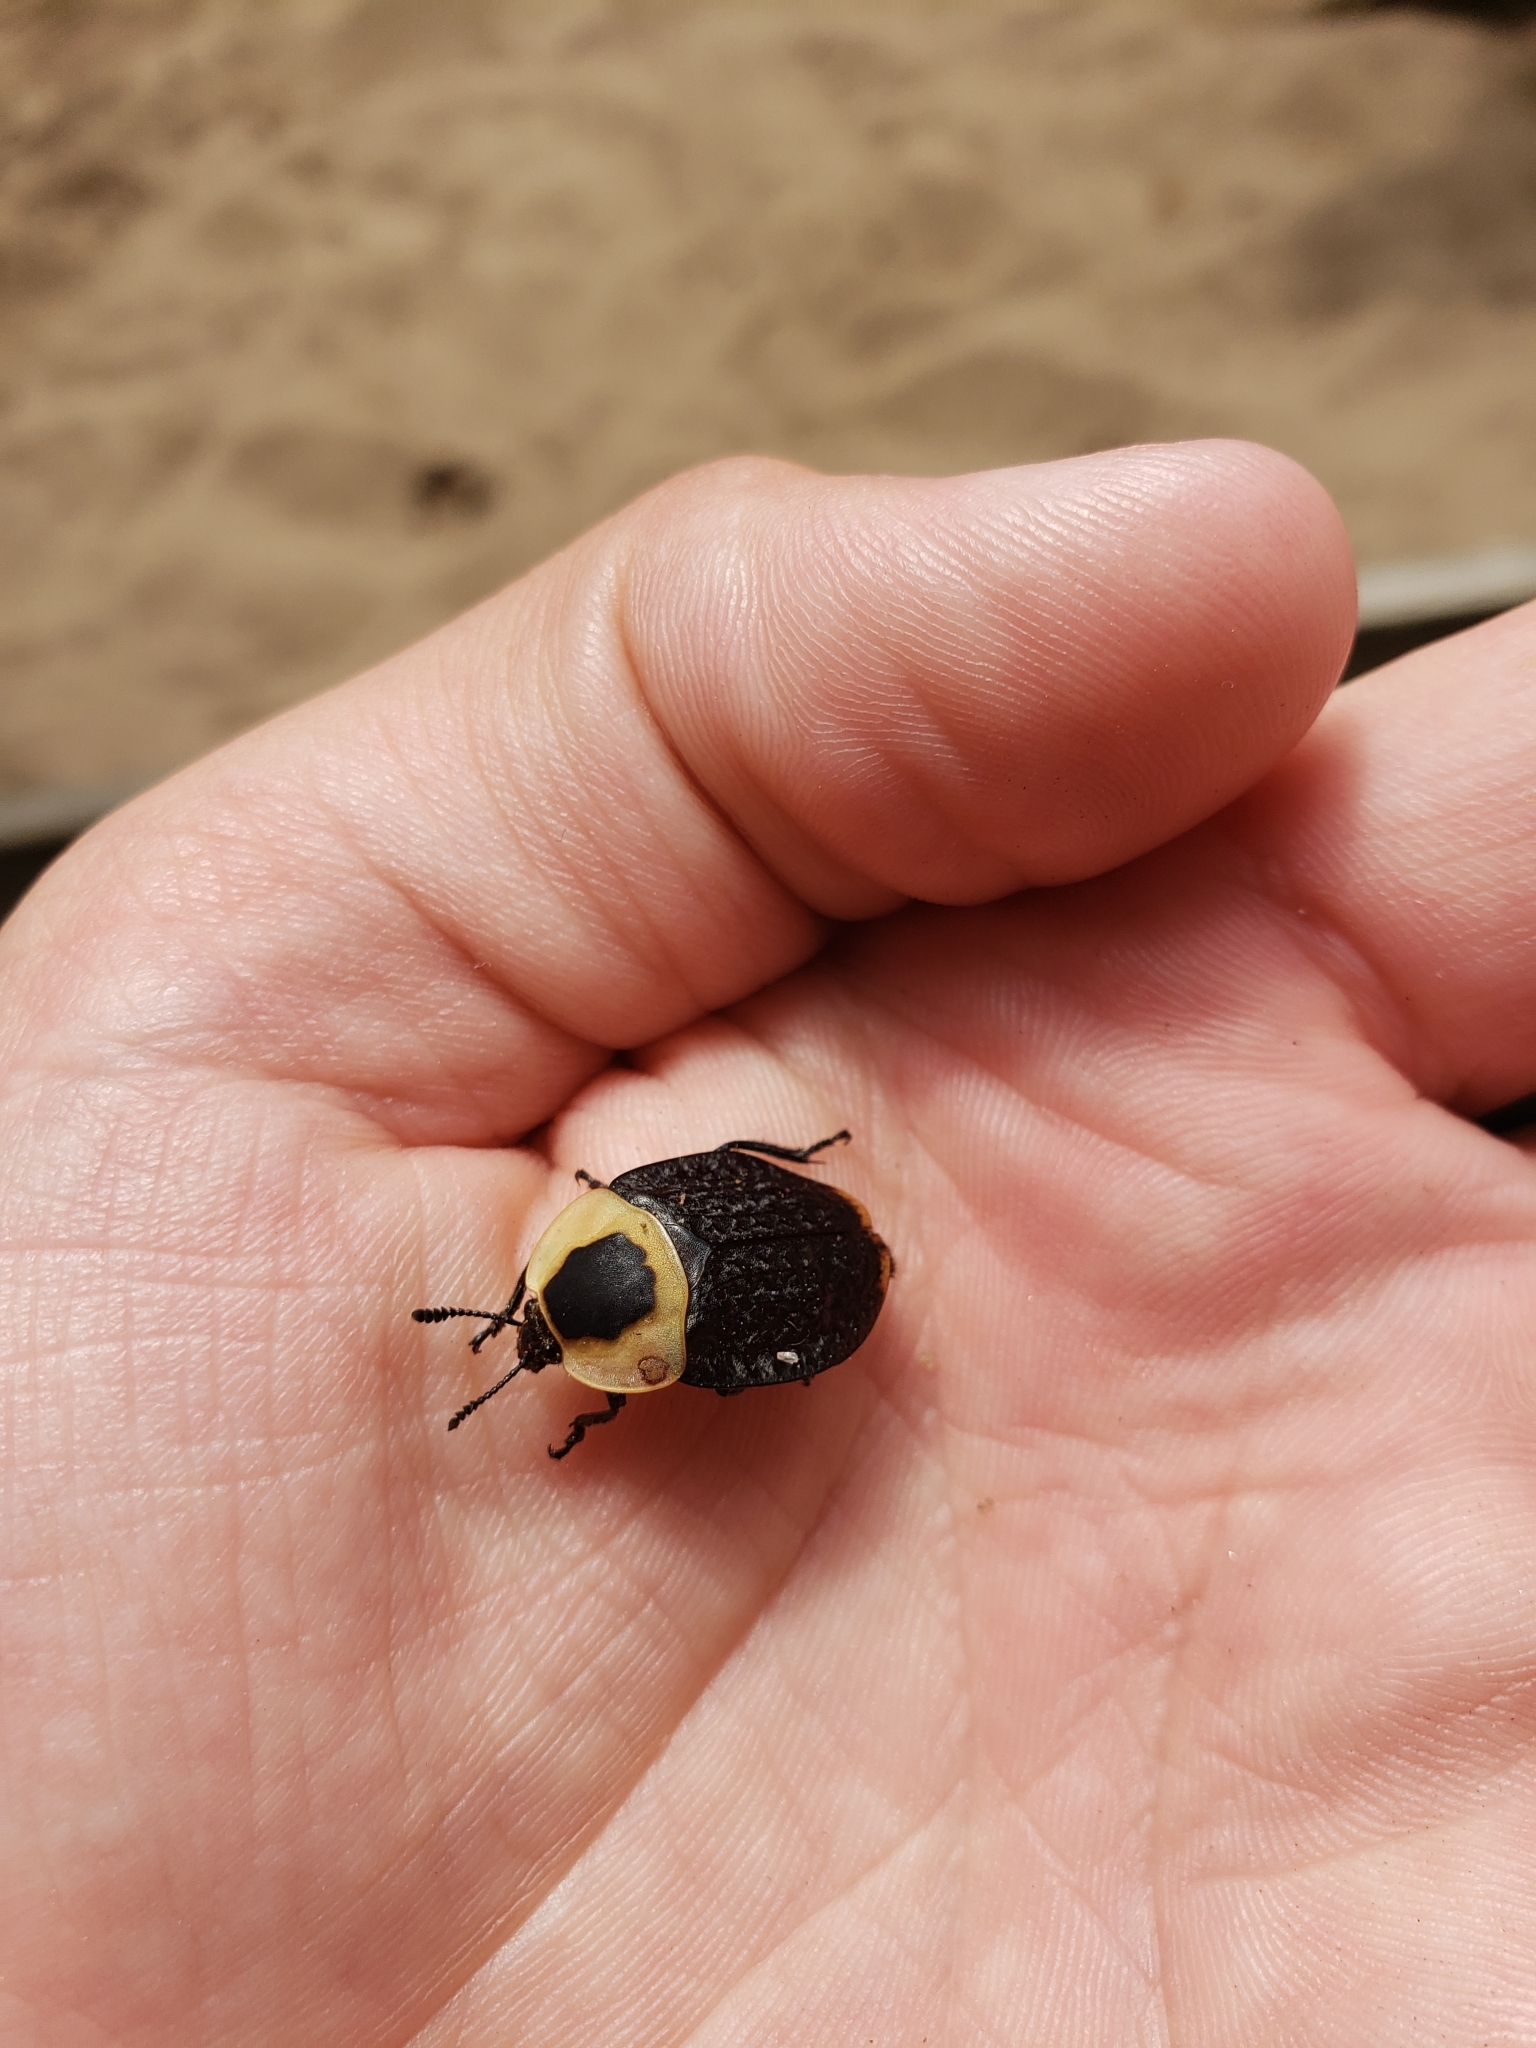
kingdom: Animalia
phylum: Arthropoda
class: Insecta
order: Coleoptera
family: Staphylinidae
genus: Necrophila
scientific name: Necrophila americana
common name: American carrion beetle
